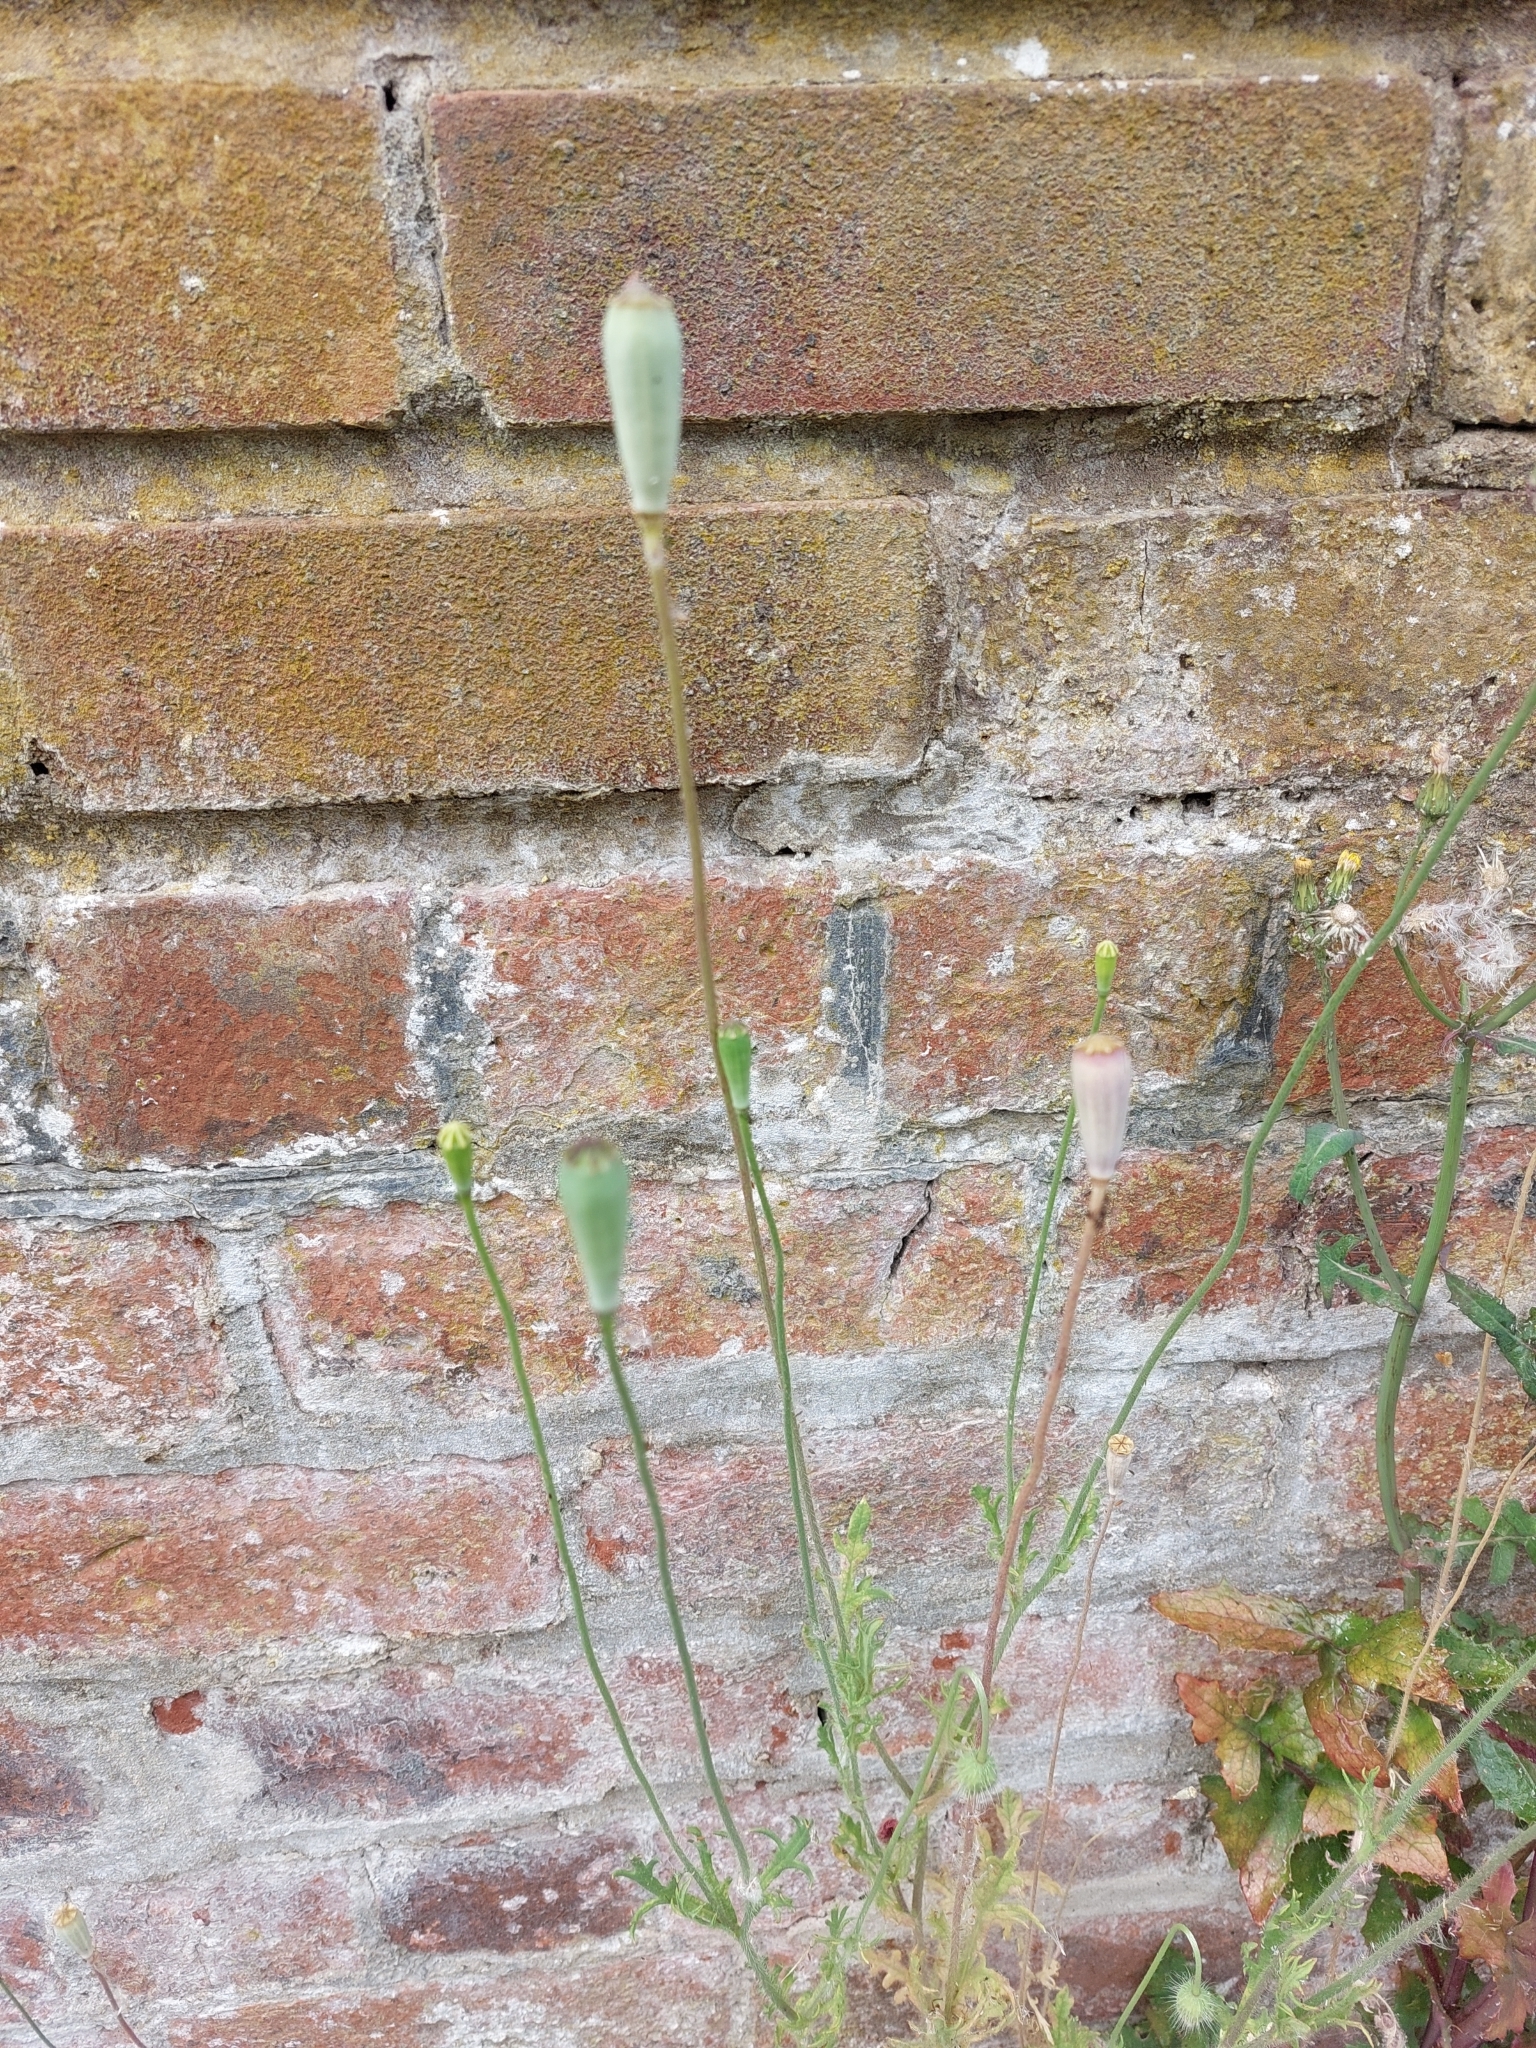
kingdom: Plantae
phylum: Tracheophyta
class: Magnoliopsida
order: Ranunculales
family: Papaveraceae
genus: Papaver
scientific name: Papaver dubium
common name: Long-headed poppy
